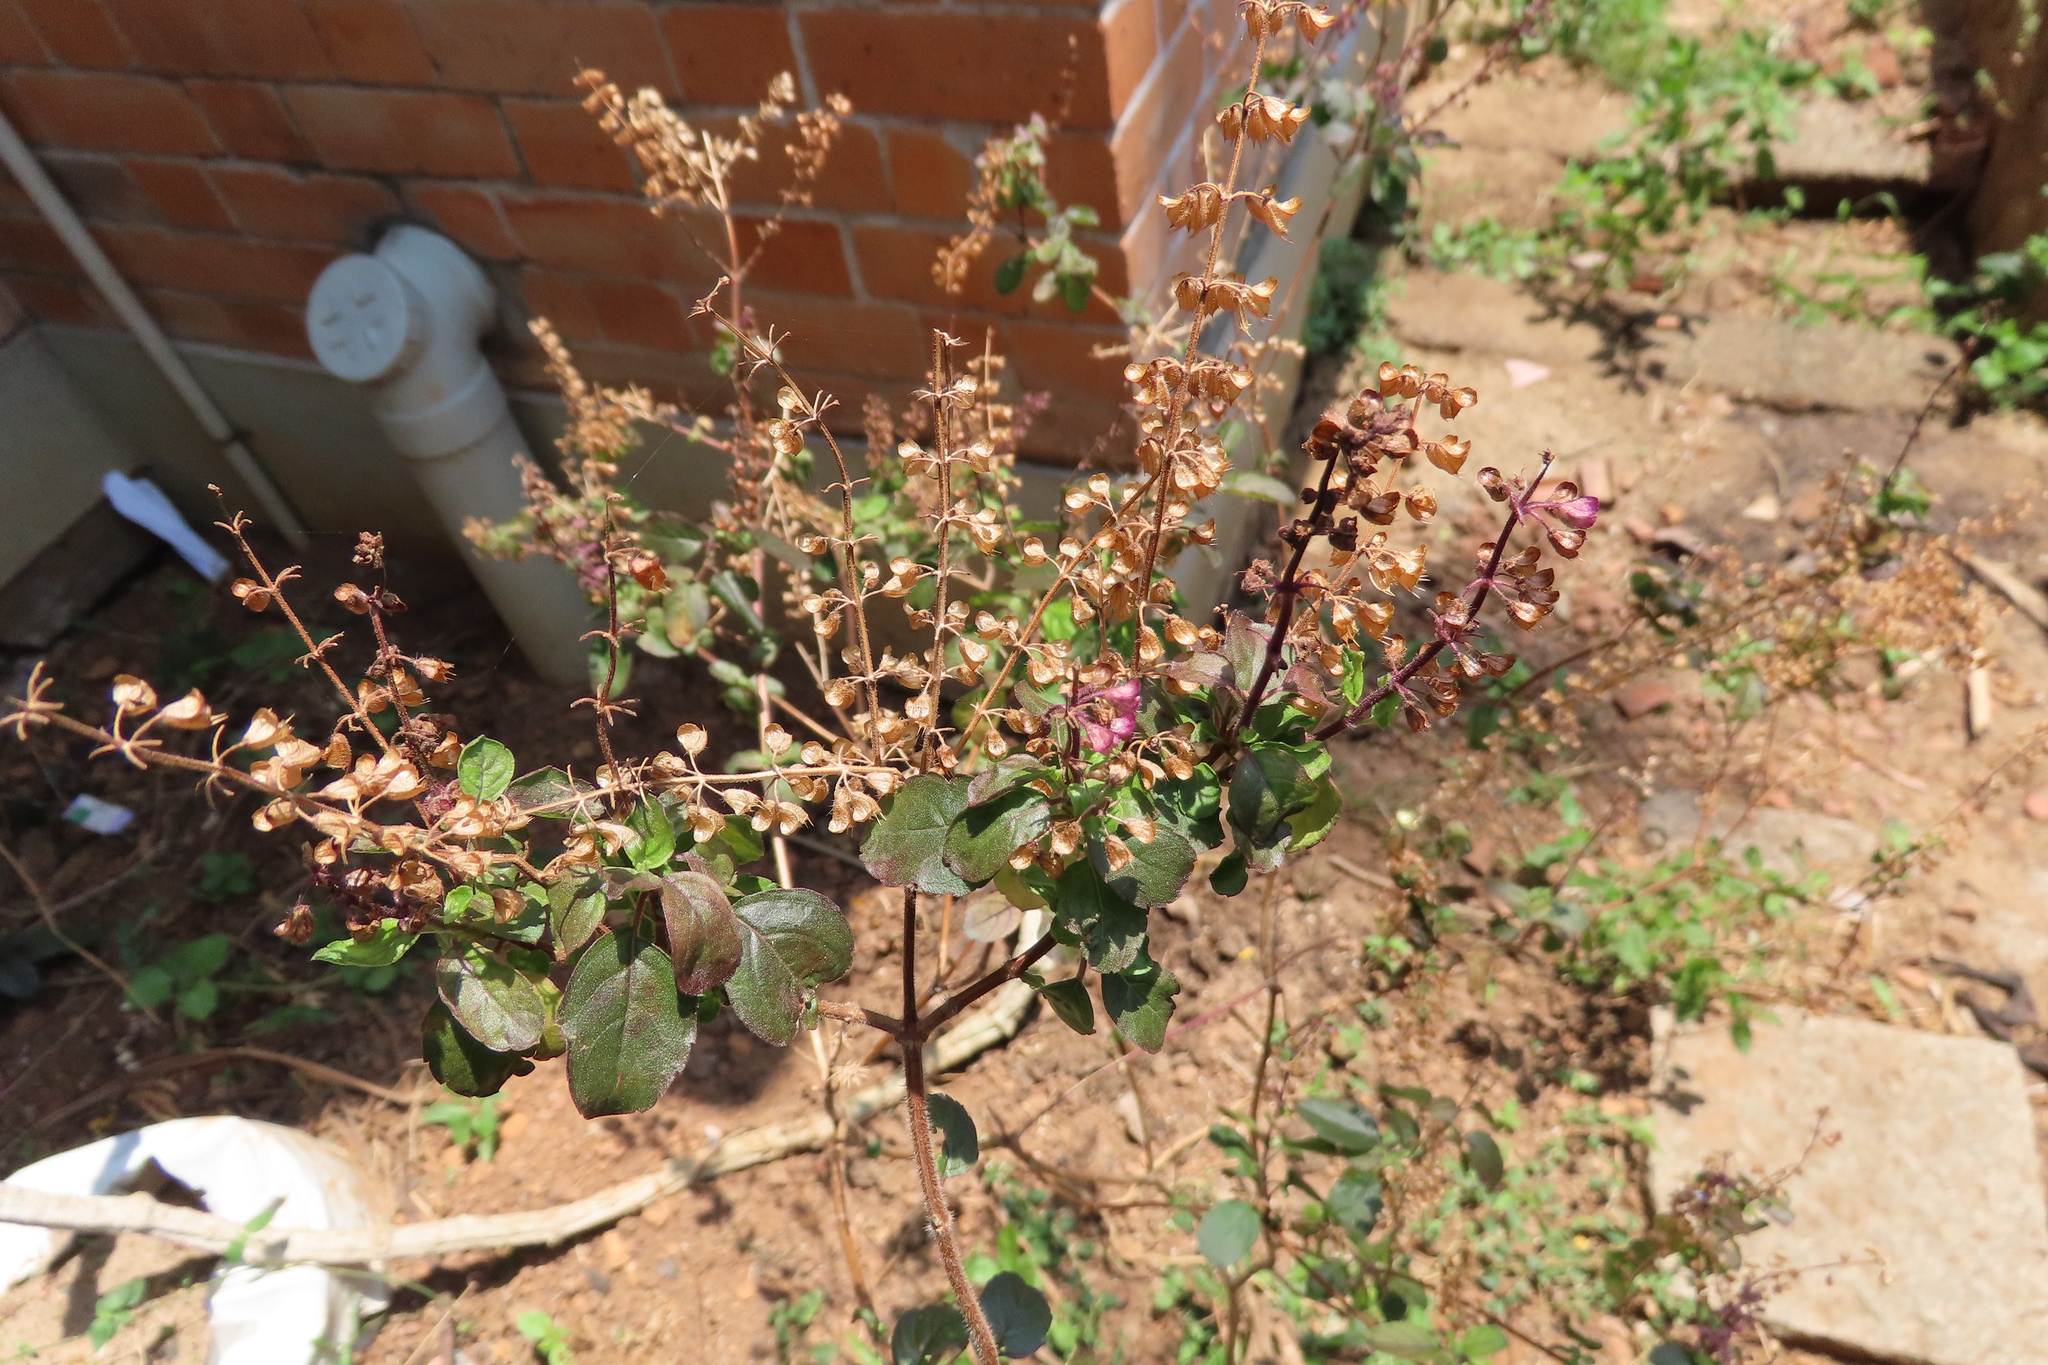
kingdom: Plantae
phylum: Tracheophyta
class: Magnoliopsida
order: Lamiales
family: Lamiaceae
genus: Ocimum
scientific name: Ocimum tenuiflorum
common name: Sacred basil
